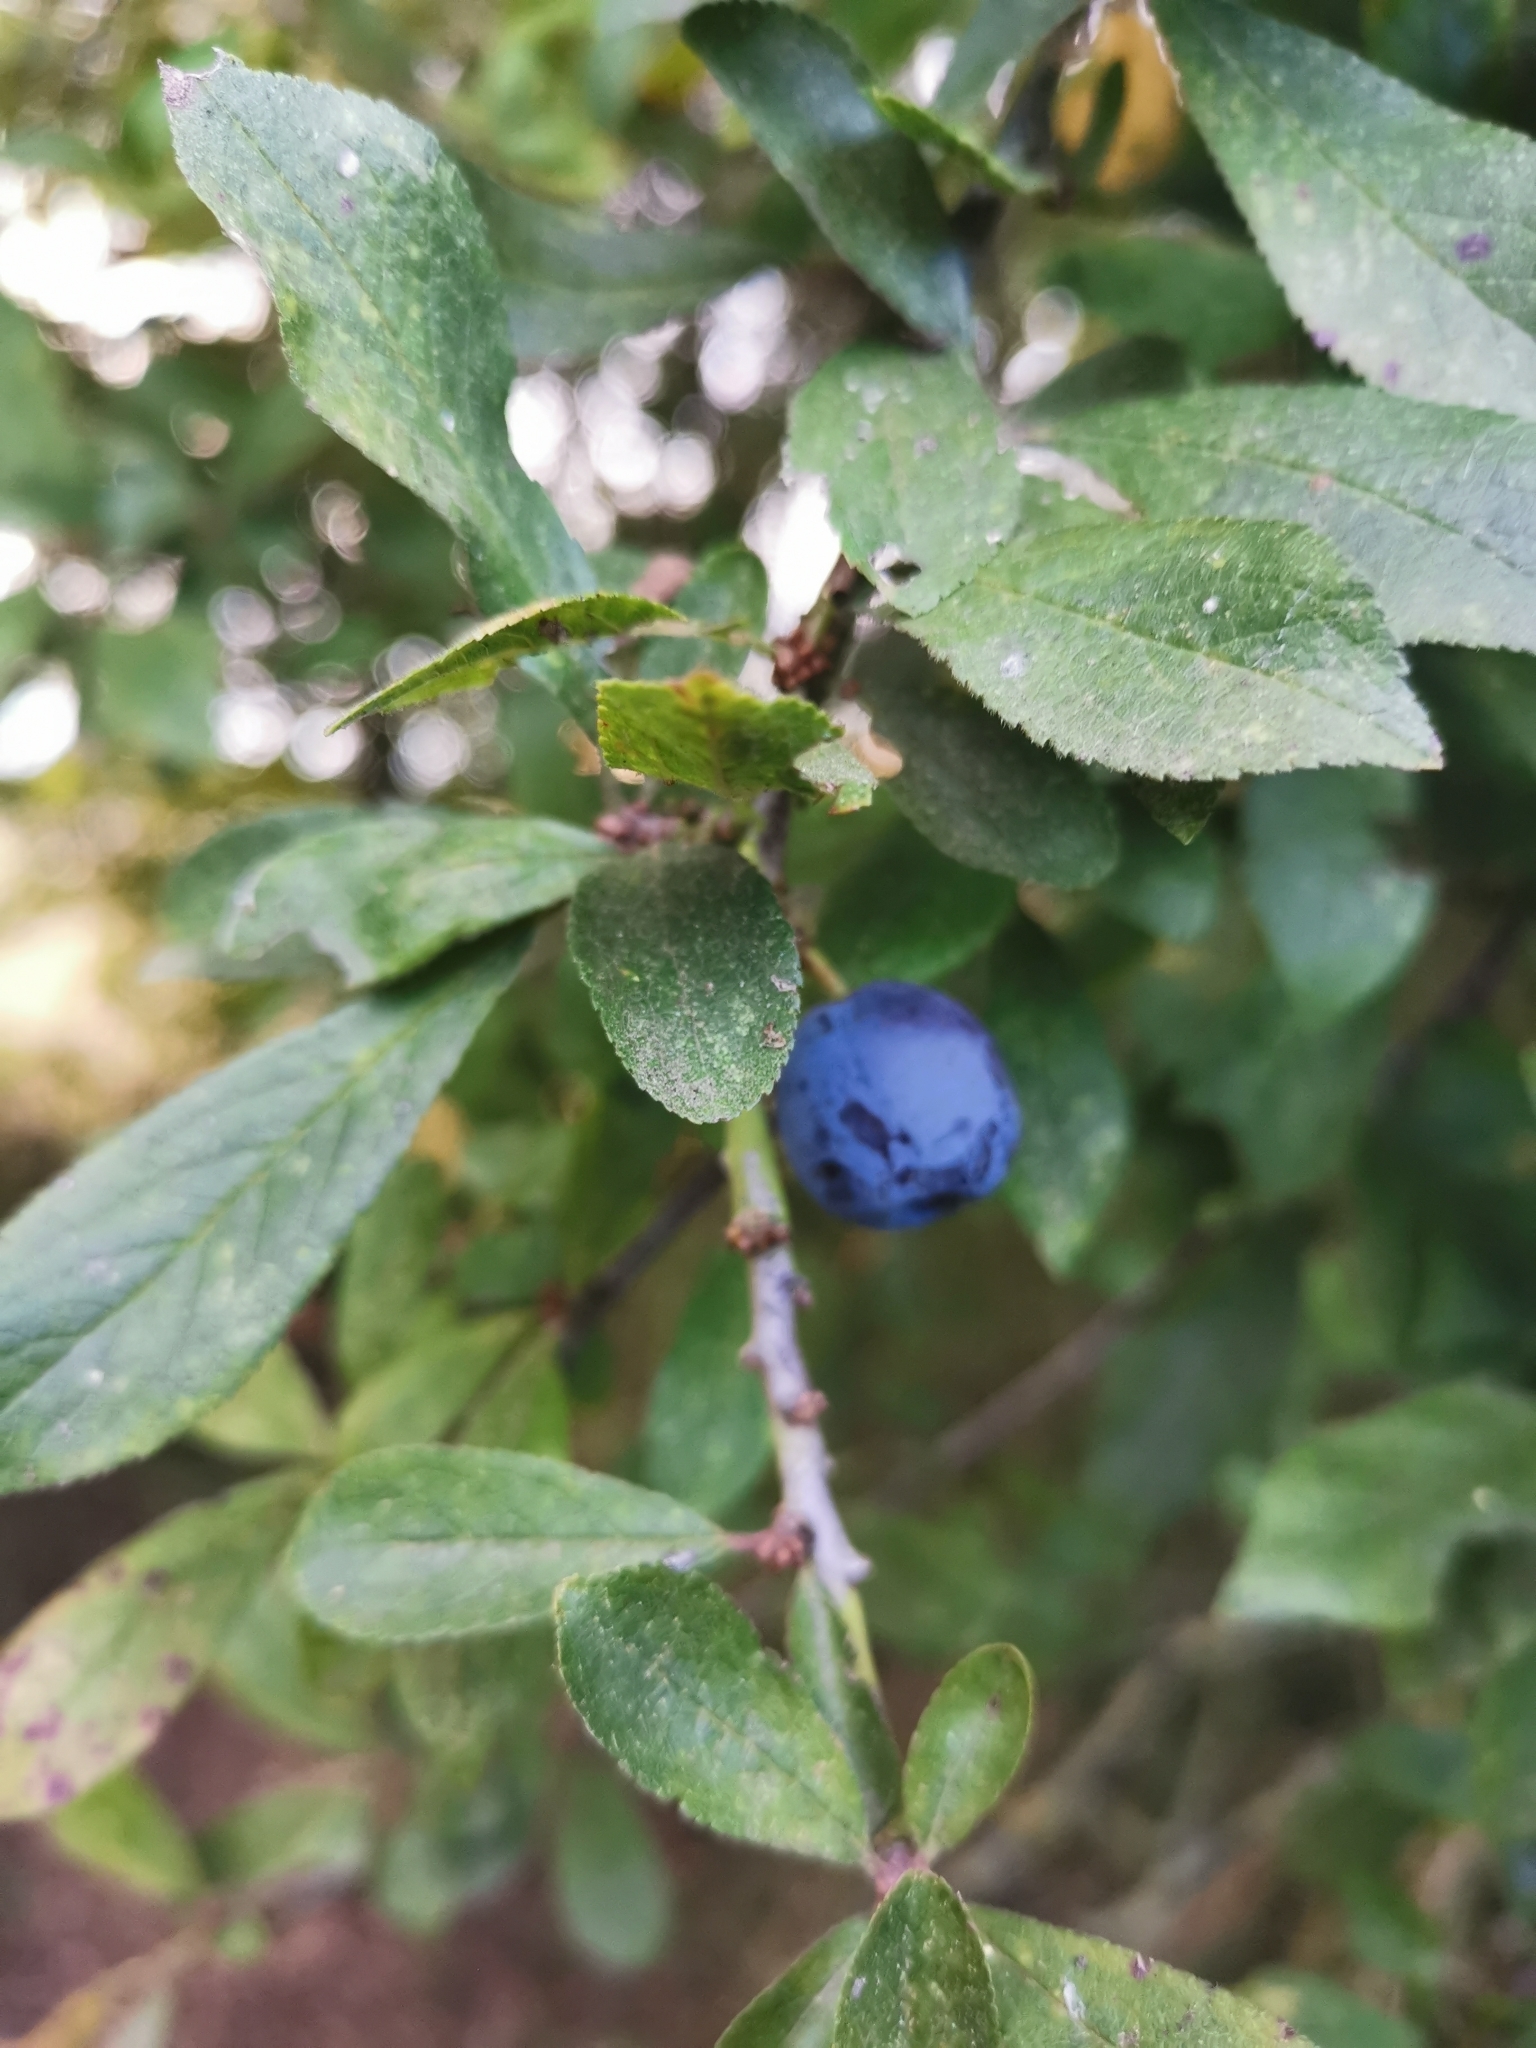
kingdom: Plantae
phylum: Tracheophyta
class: Magnoliopsida
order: Rosales
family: Rosaceae
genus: Prunus
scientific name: Prunus spinosa
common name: Blackthorn
